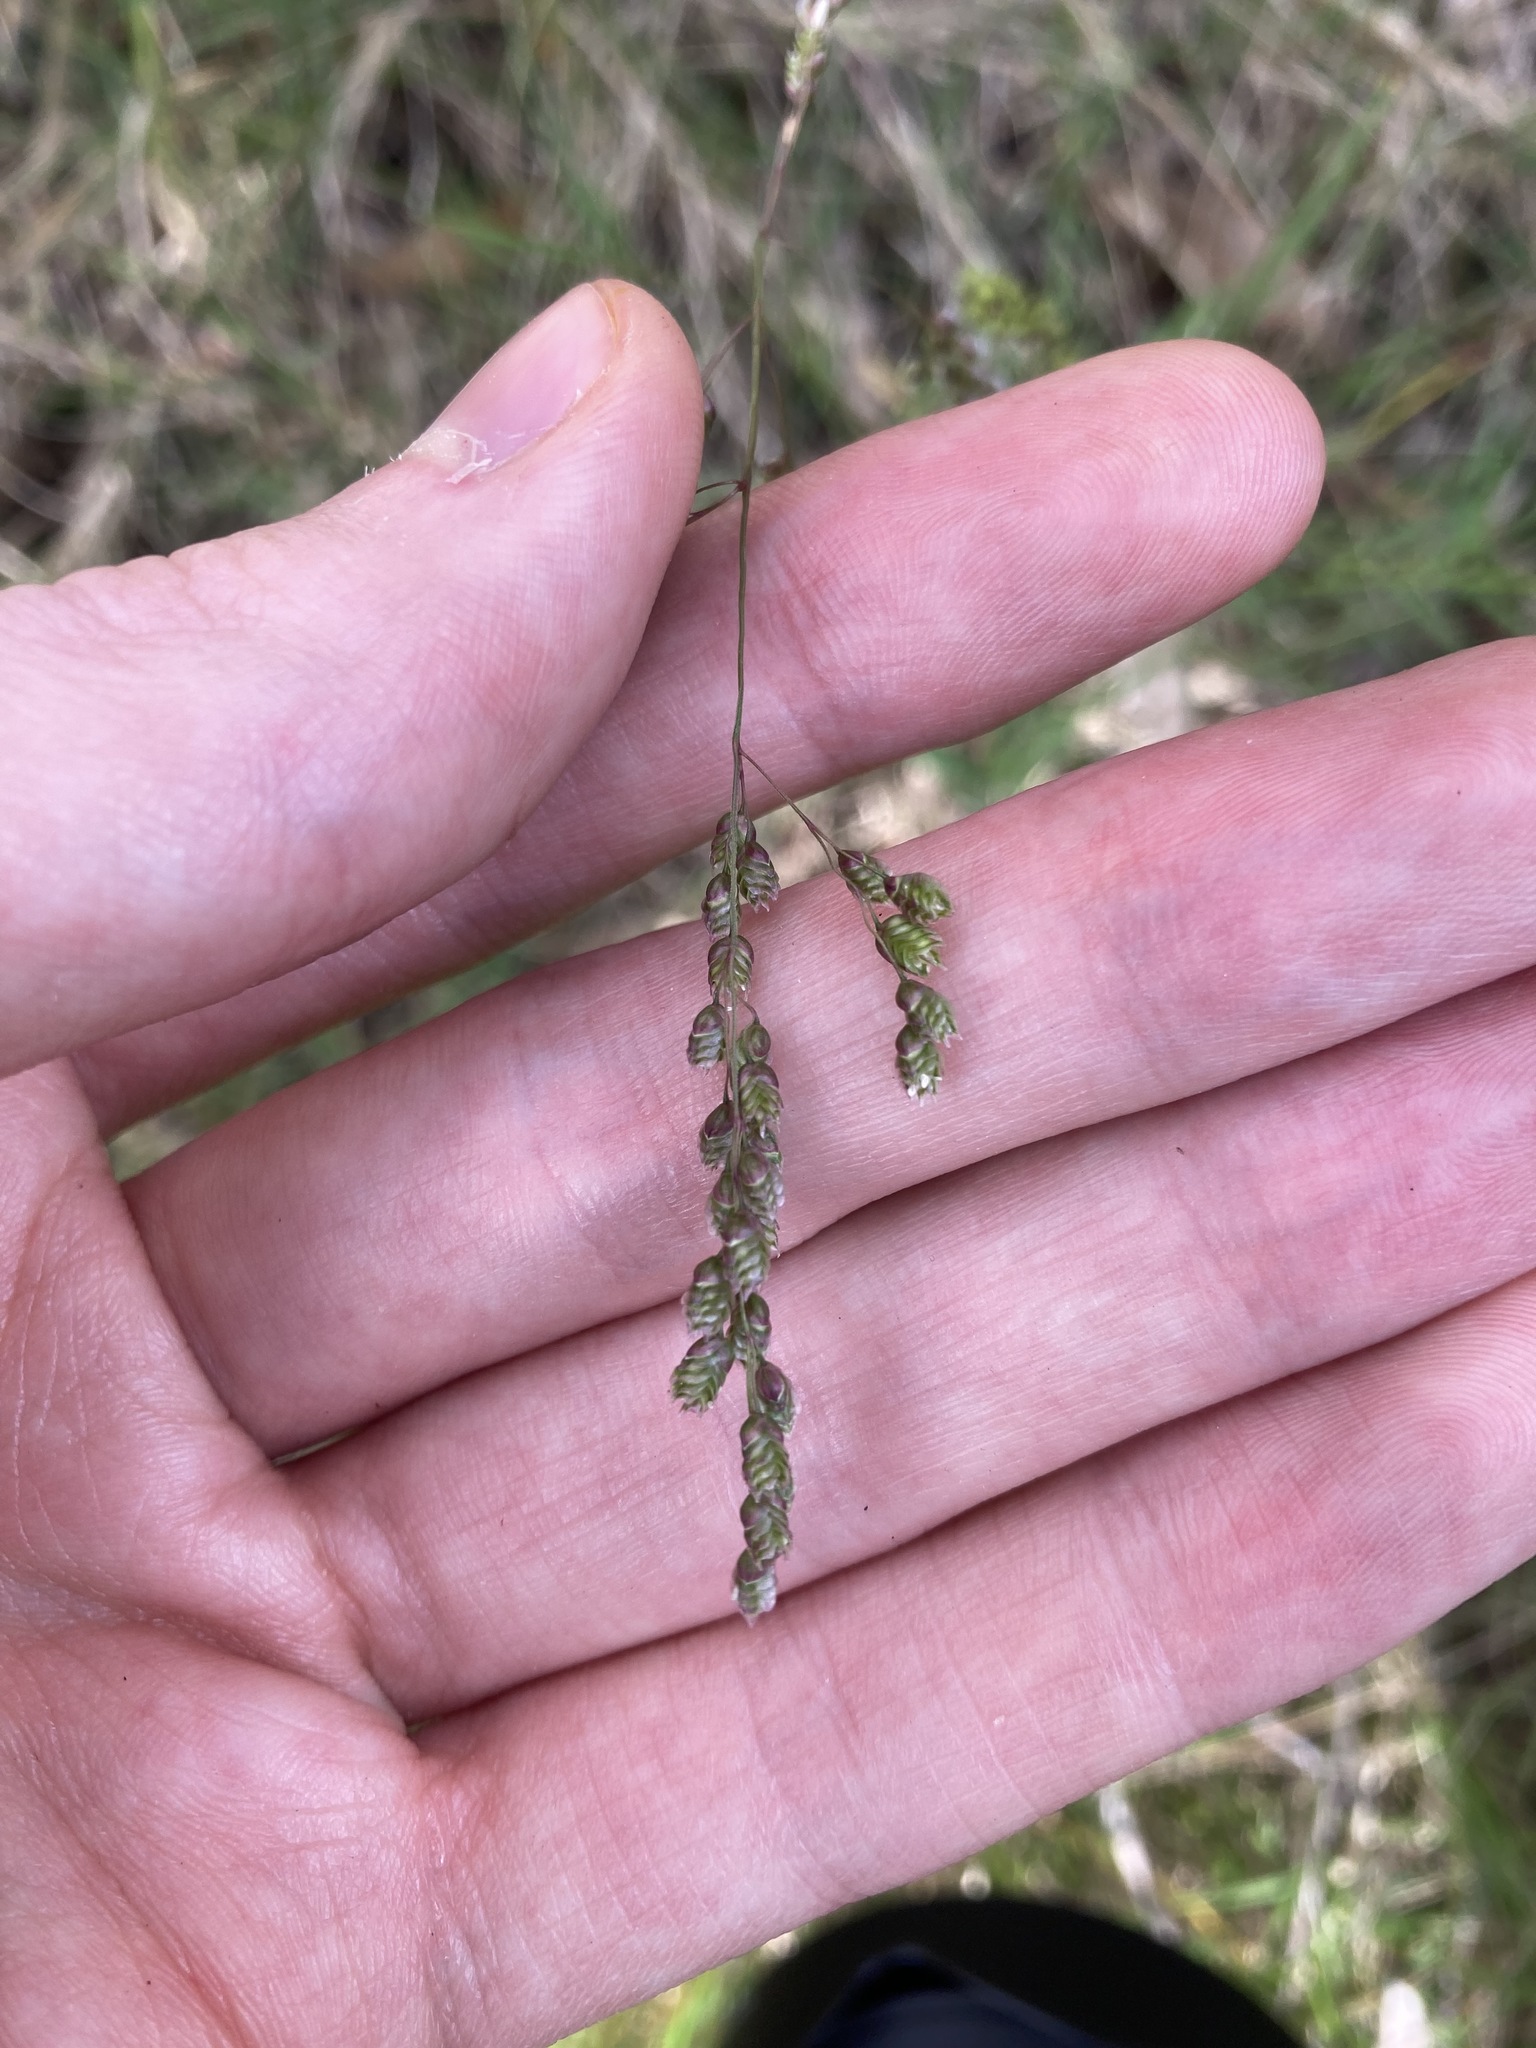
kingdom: Plantae
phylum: Tracheophyta
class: Liliopsida
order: Poales
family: Poaceae
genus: Chascolytrum
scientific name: Chascolytrum subaristatum
